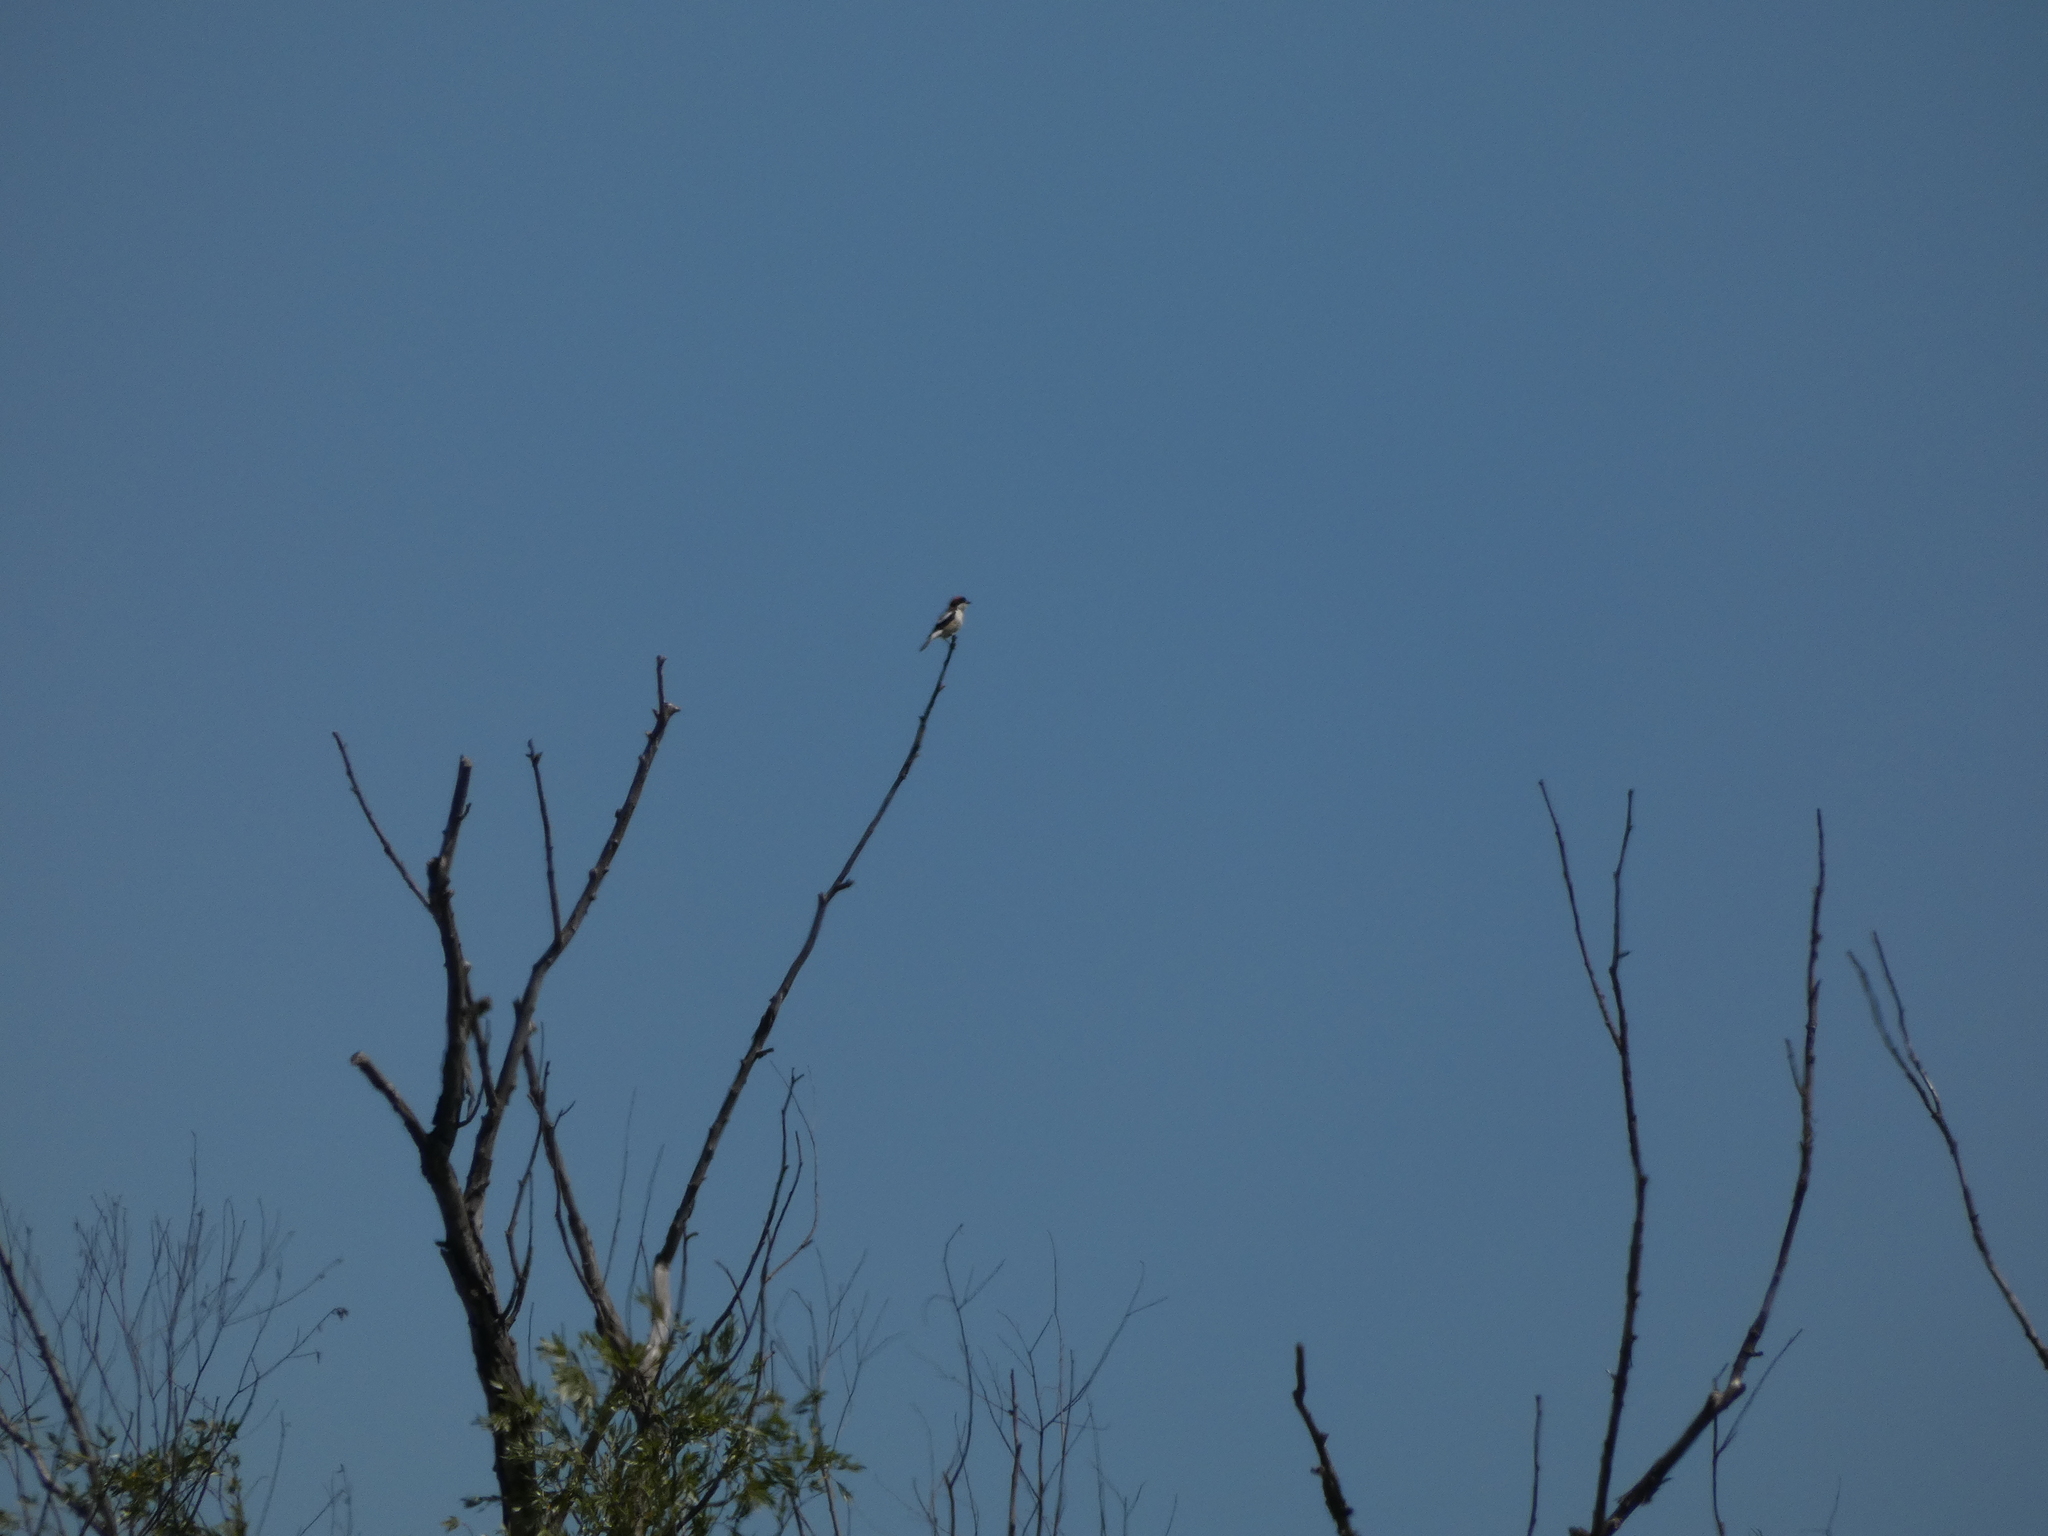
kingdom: Animalia
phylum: Chordata
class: Aves
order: Passeriformes
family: Laniidae
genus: Lanius
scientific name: Lanius senator
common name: Woodchat shrike
